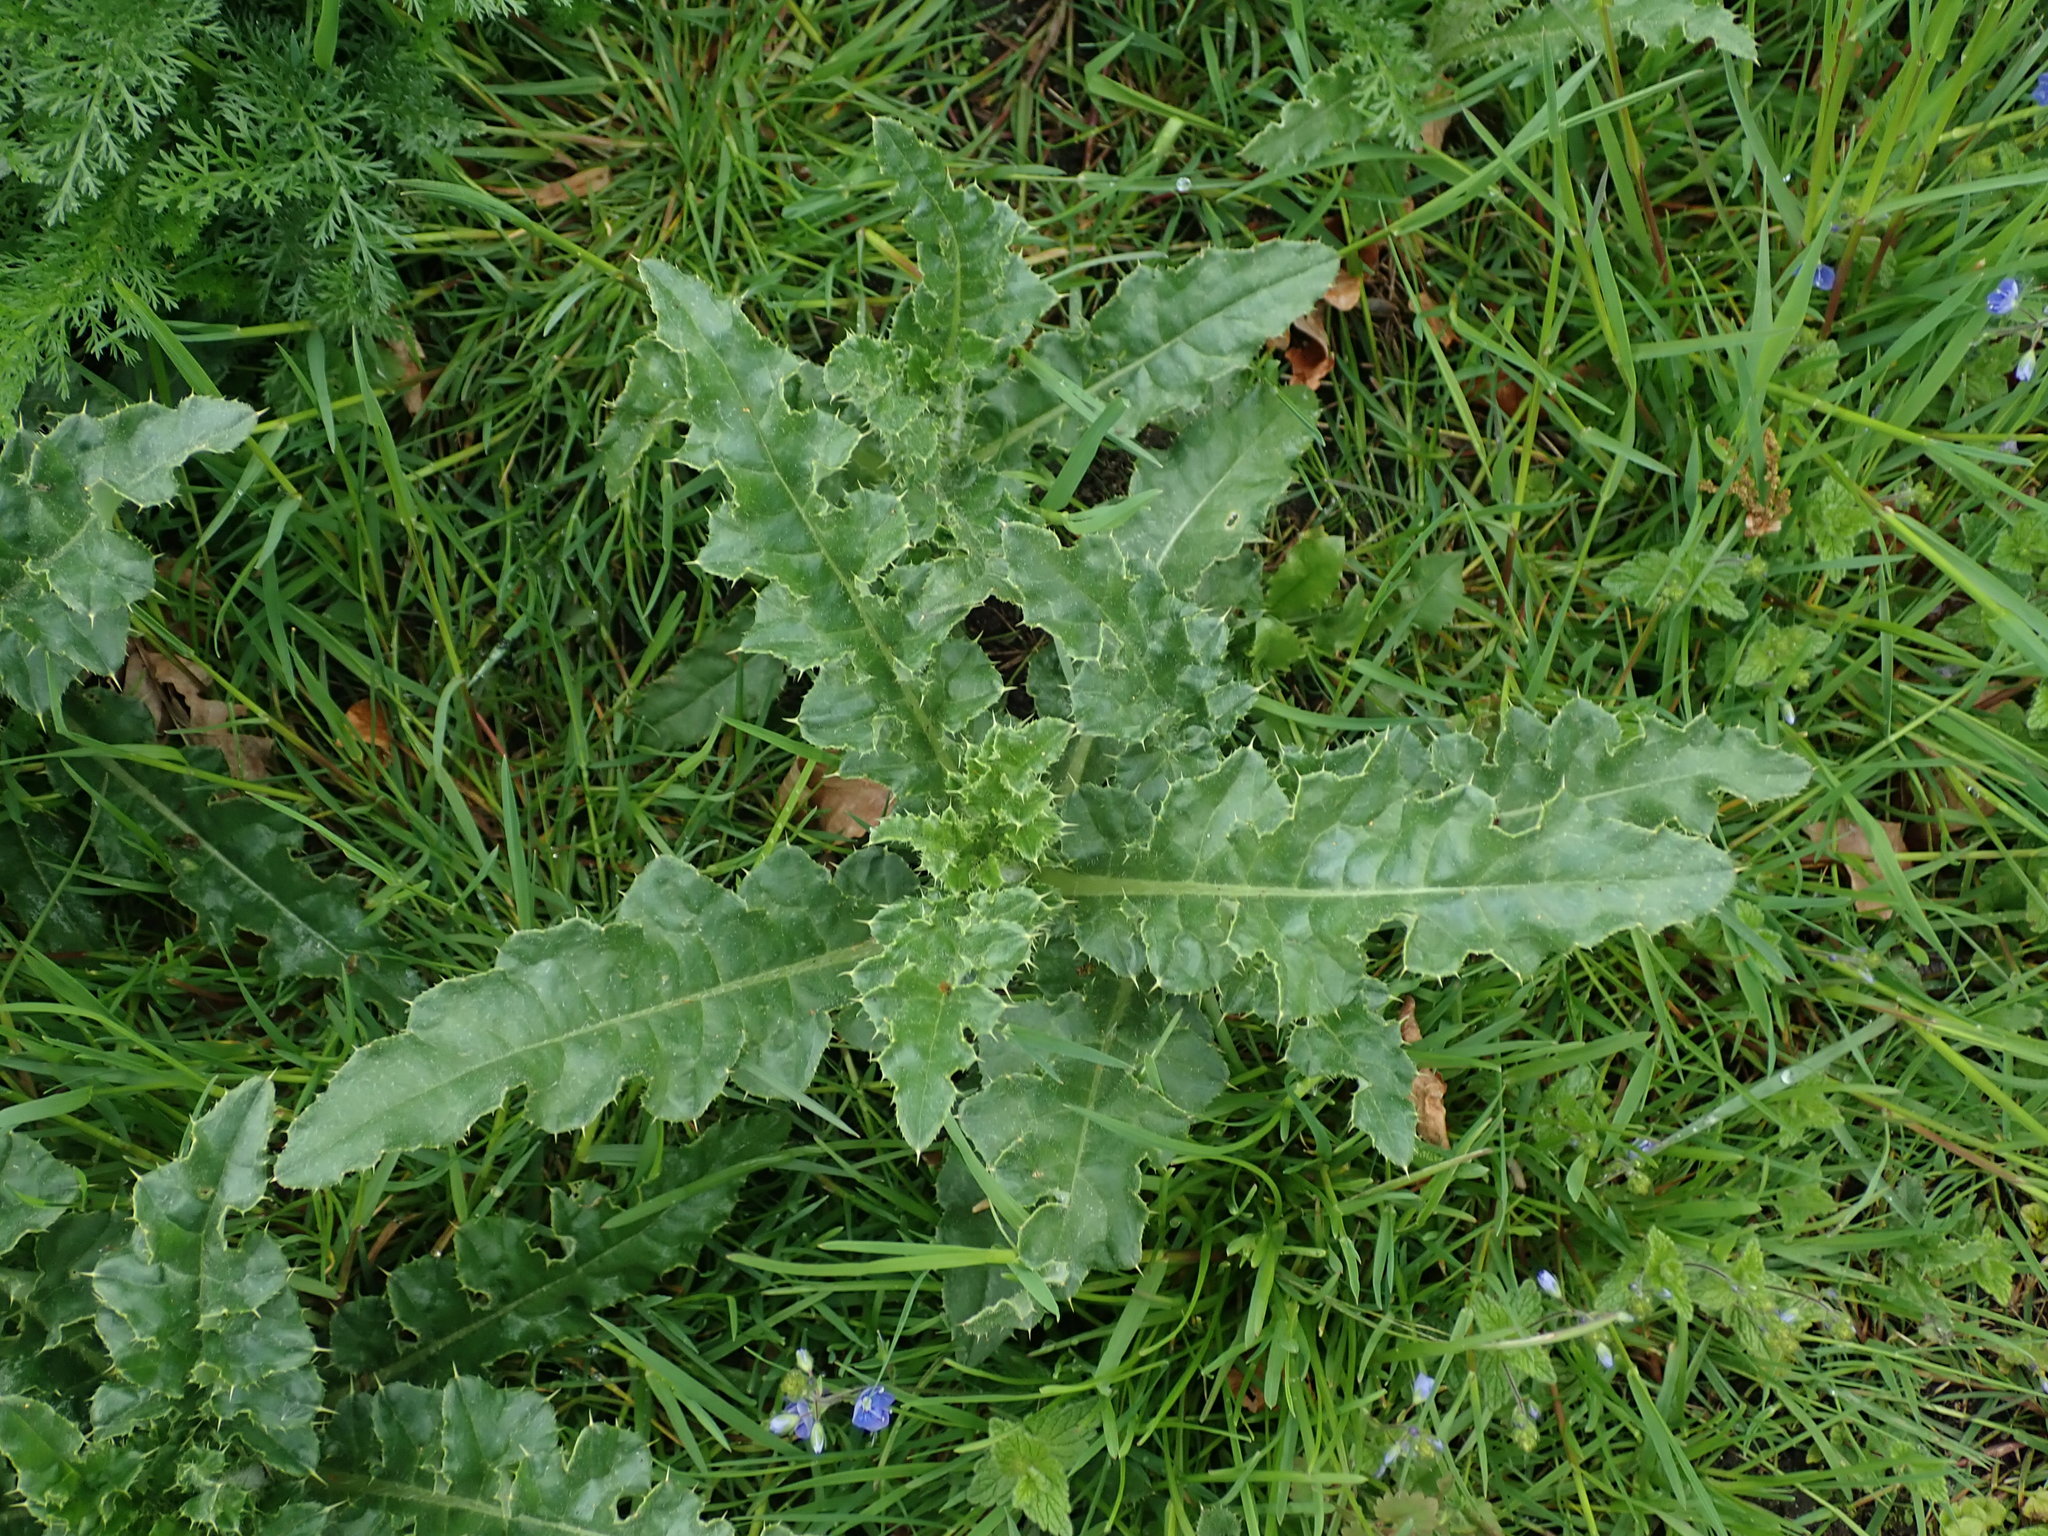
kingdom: Plantae
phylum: Tracheophyta
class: Magnoliopsida
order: Asterales
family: Asteraceae
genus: Cirsium
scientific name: Cirsium arvense
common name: Creeping thistle
